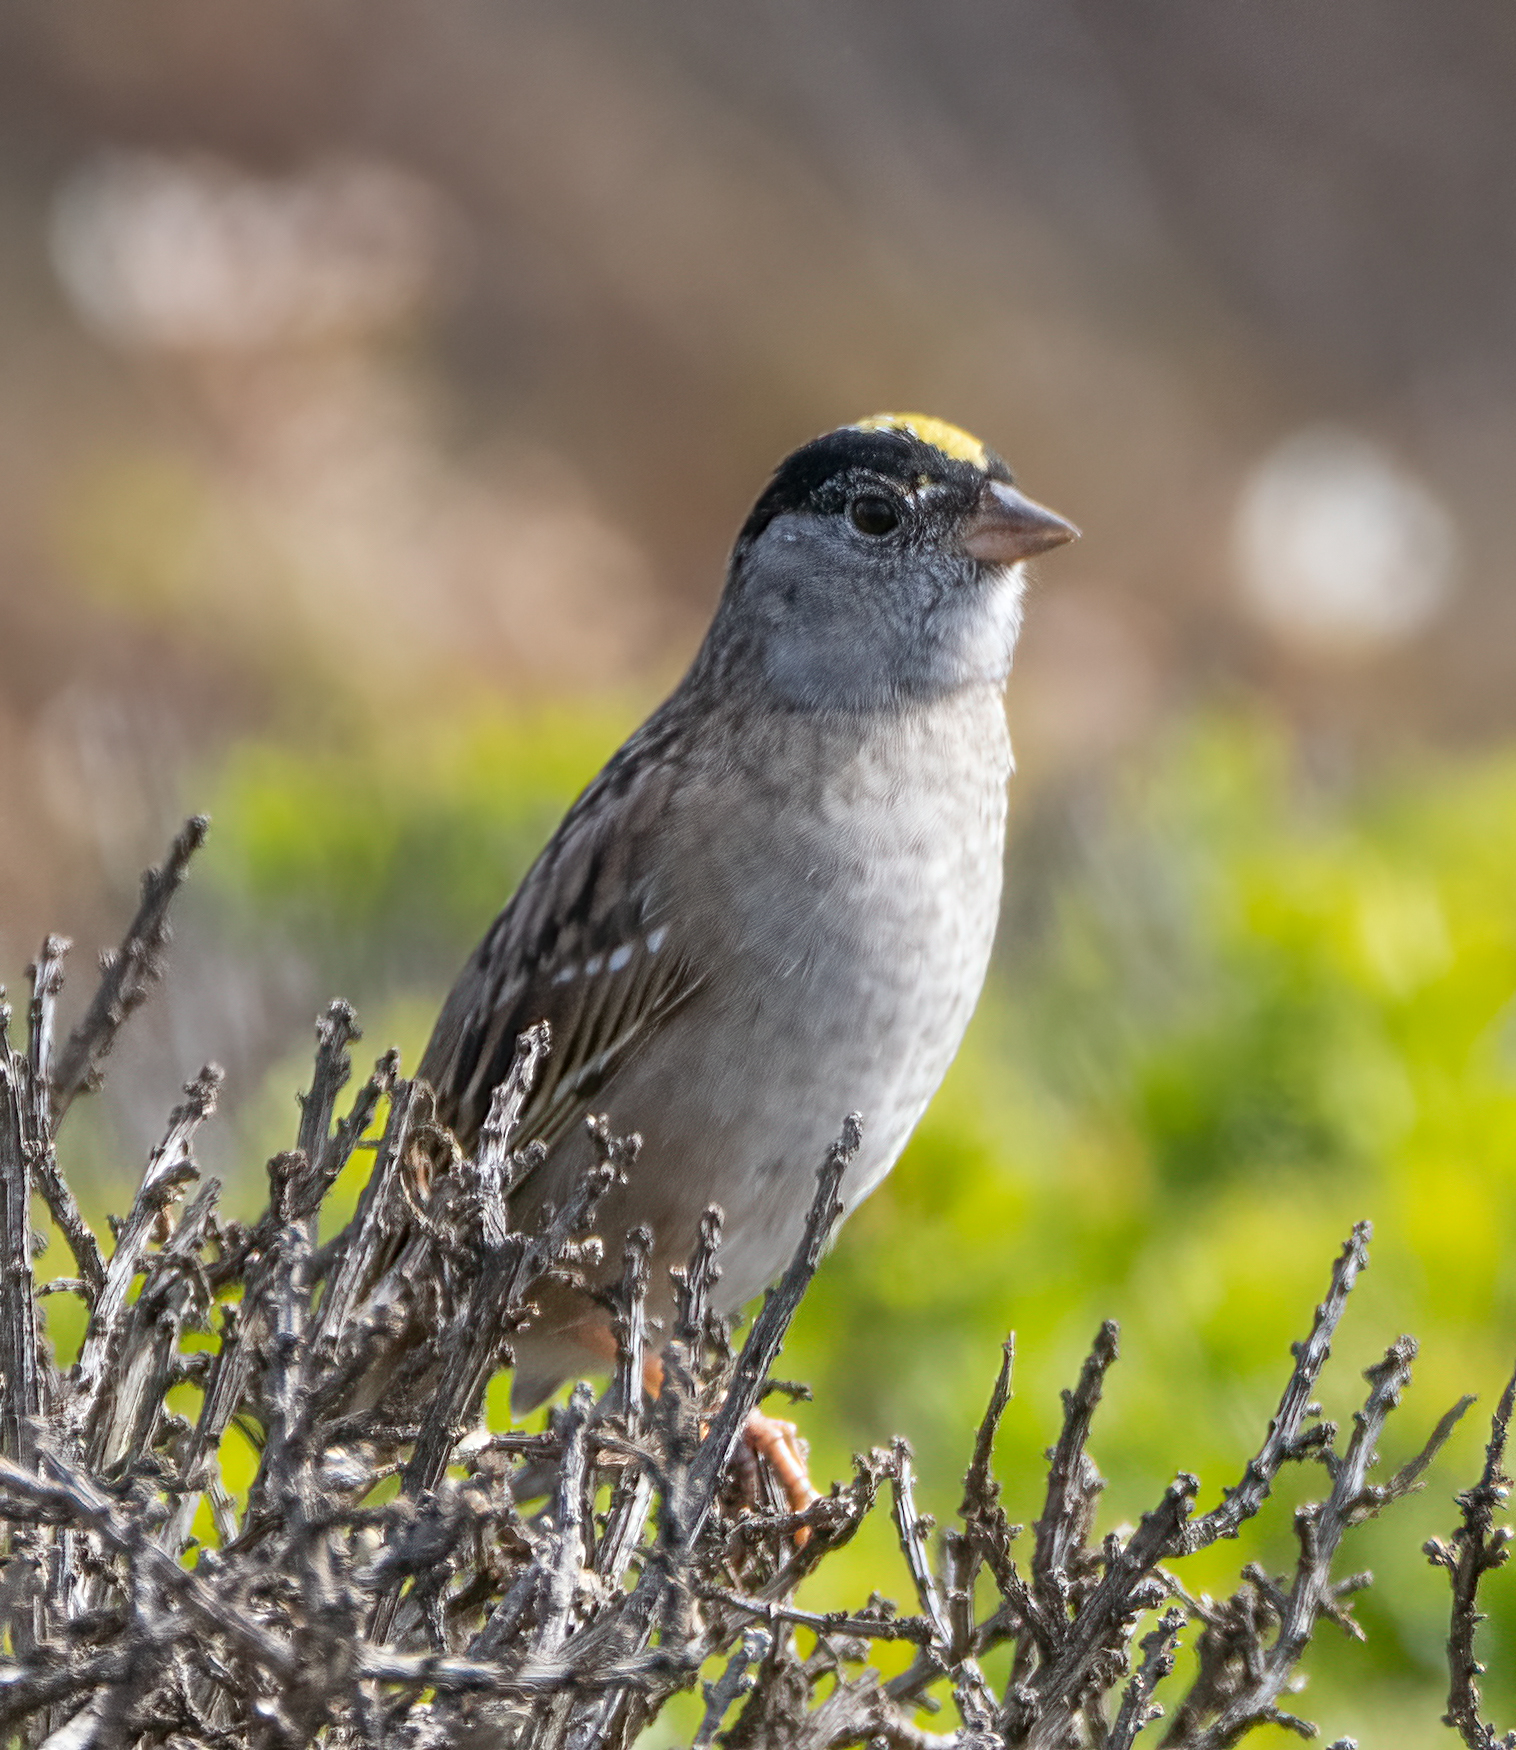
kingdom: Animalia
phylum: Chordata
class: Aves
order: Passeriformes
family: Passerellidae
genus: Zonotrichia
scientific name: Zonotrichia atricapilla
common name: Golden-crowned sparrow
